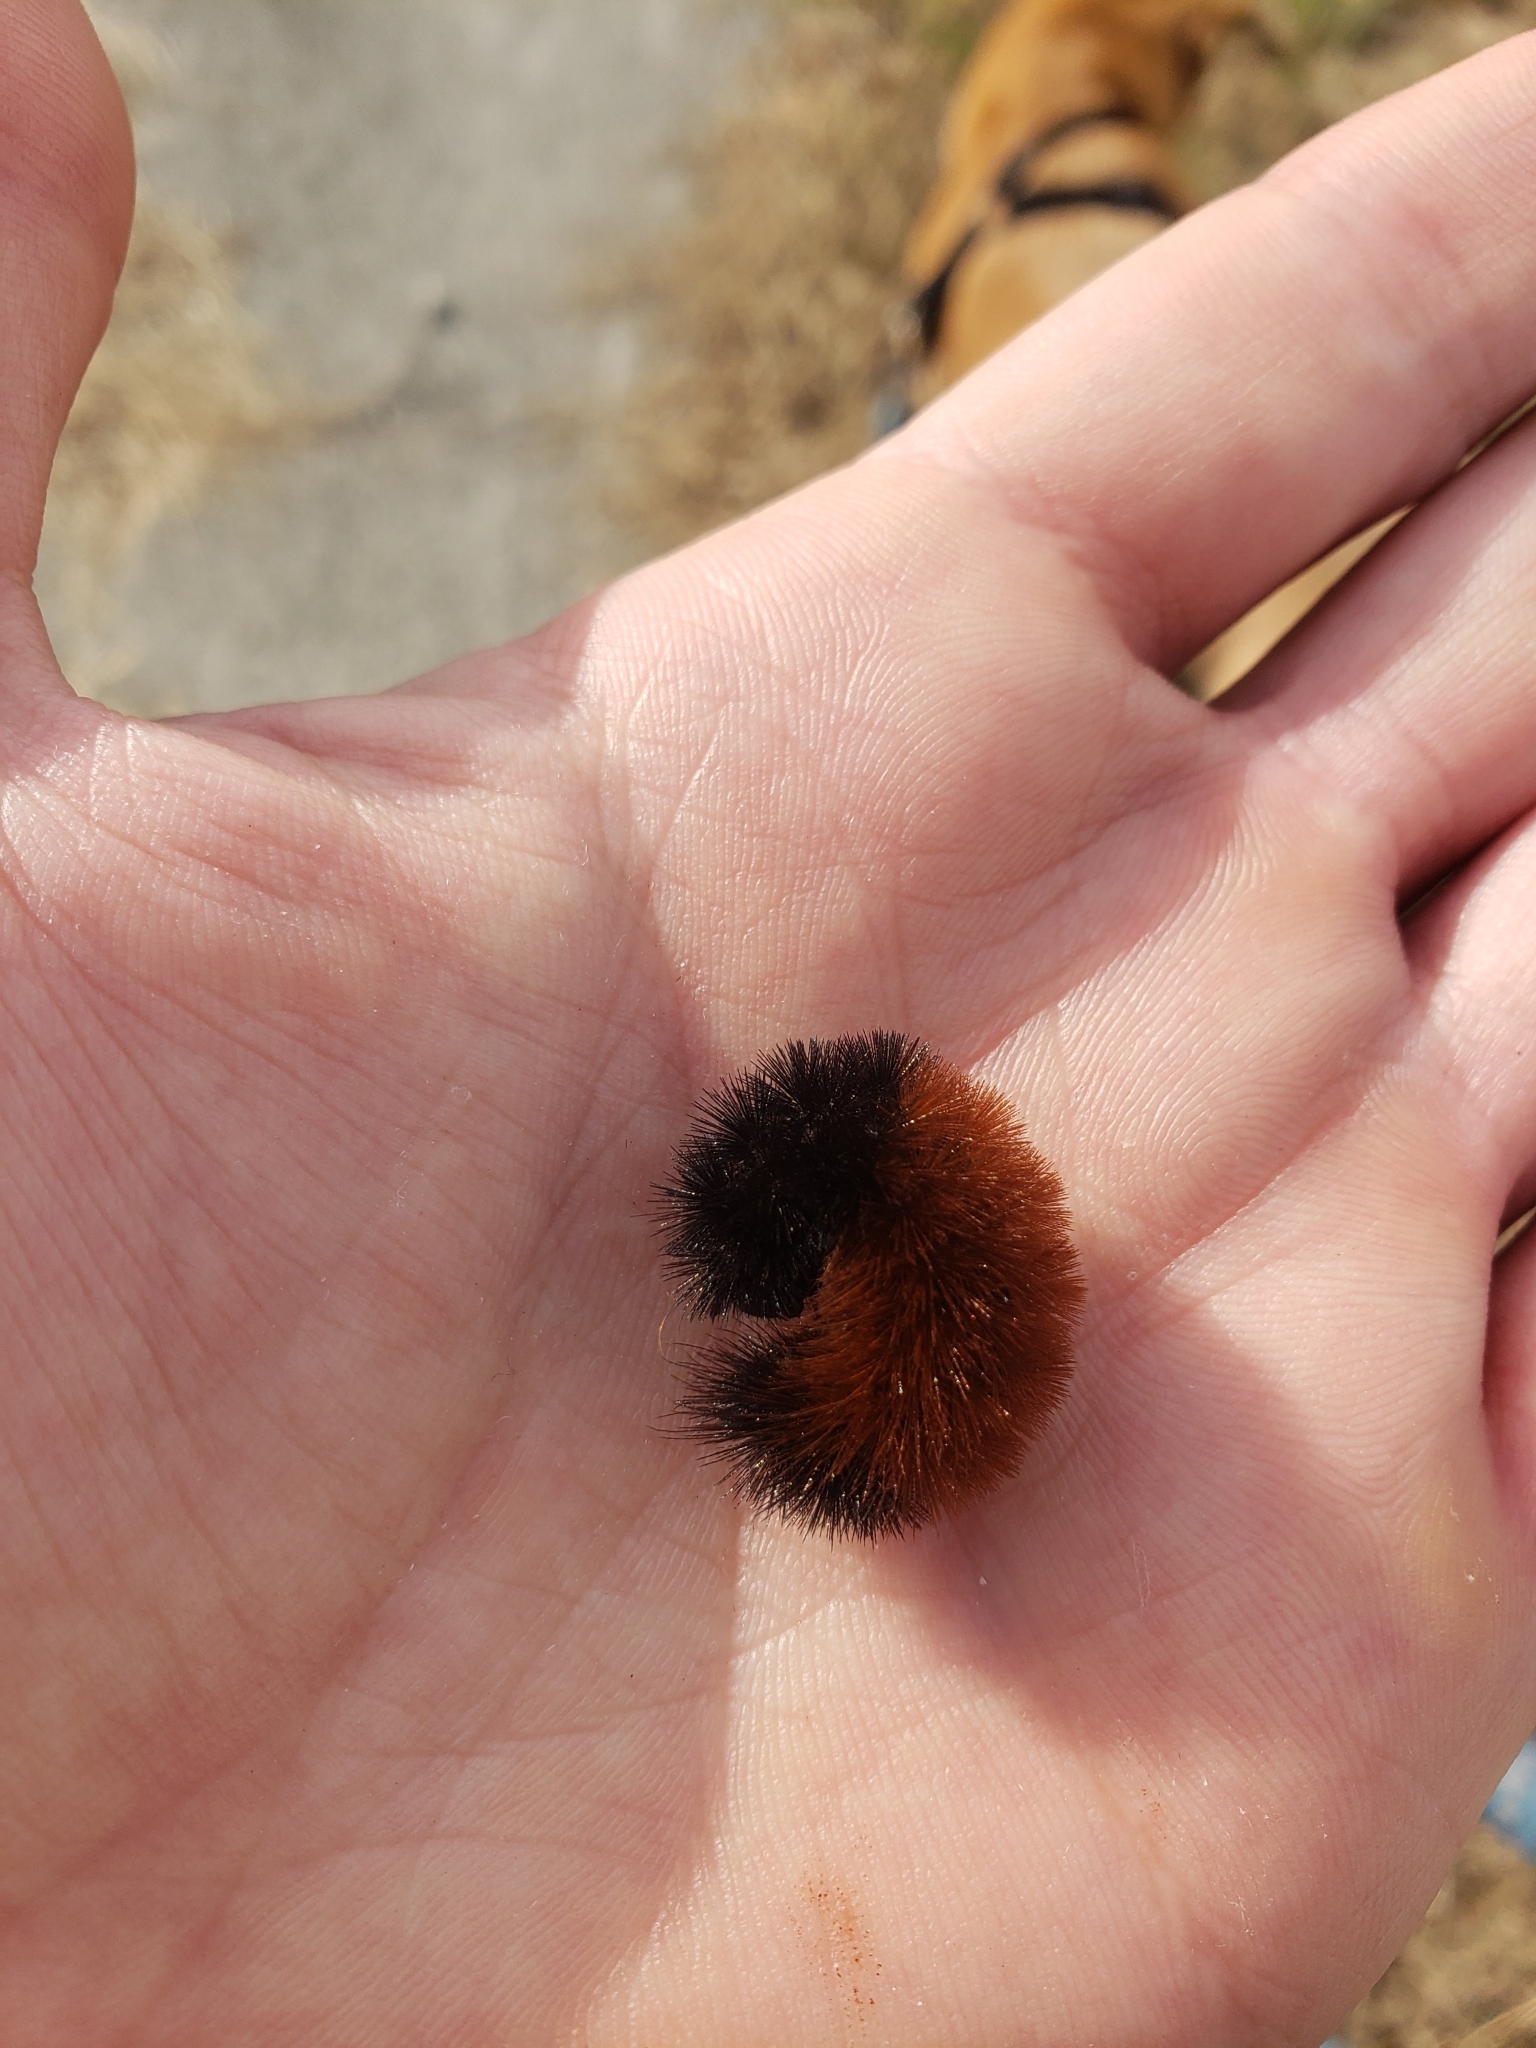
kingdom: Animalia
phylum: Arthropoda
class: Insecta
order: Lepidoptera
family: Erebidae
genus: Pyrrharctia
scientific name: Pyrrharctia isabella
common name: Isabella tiger moth
